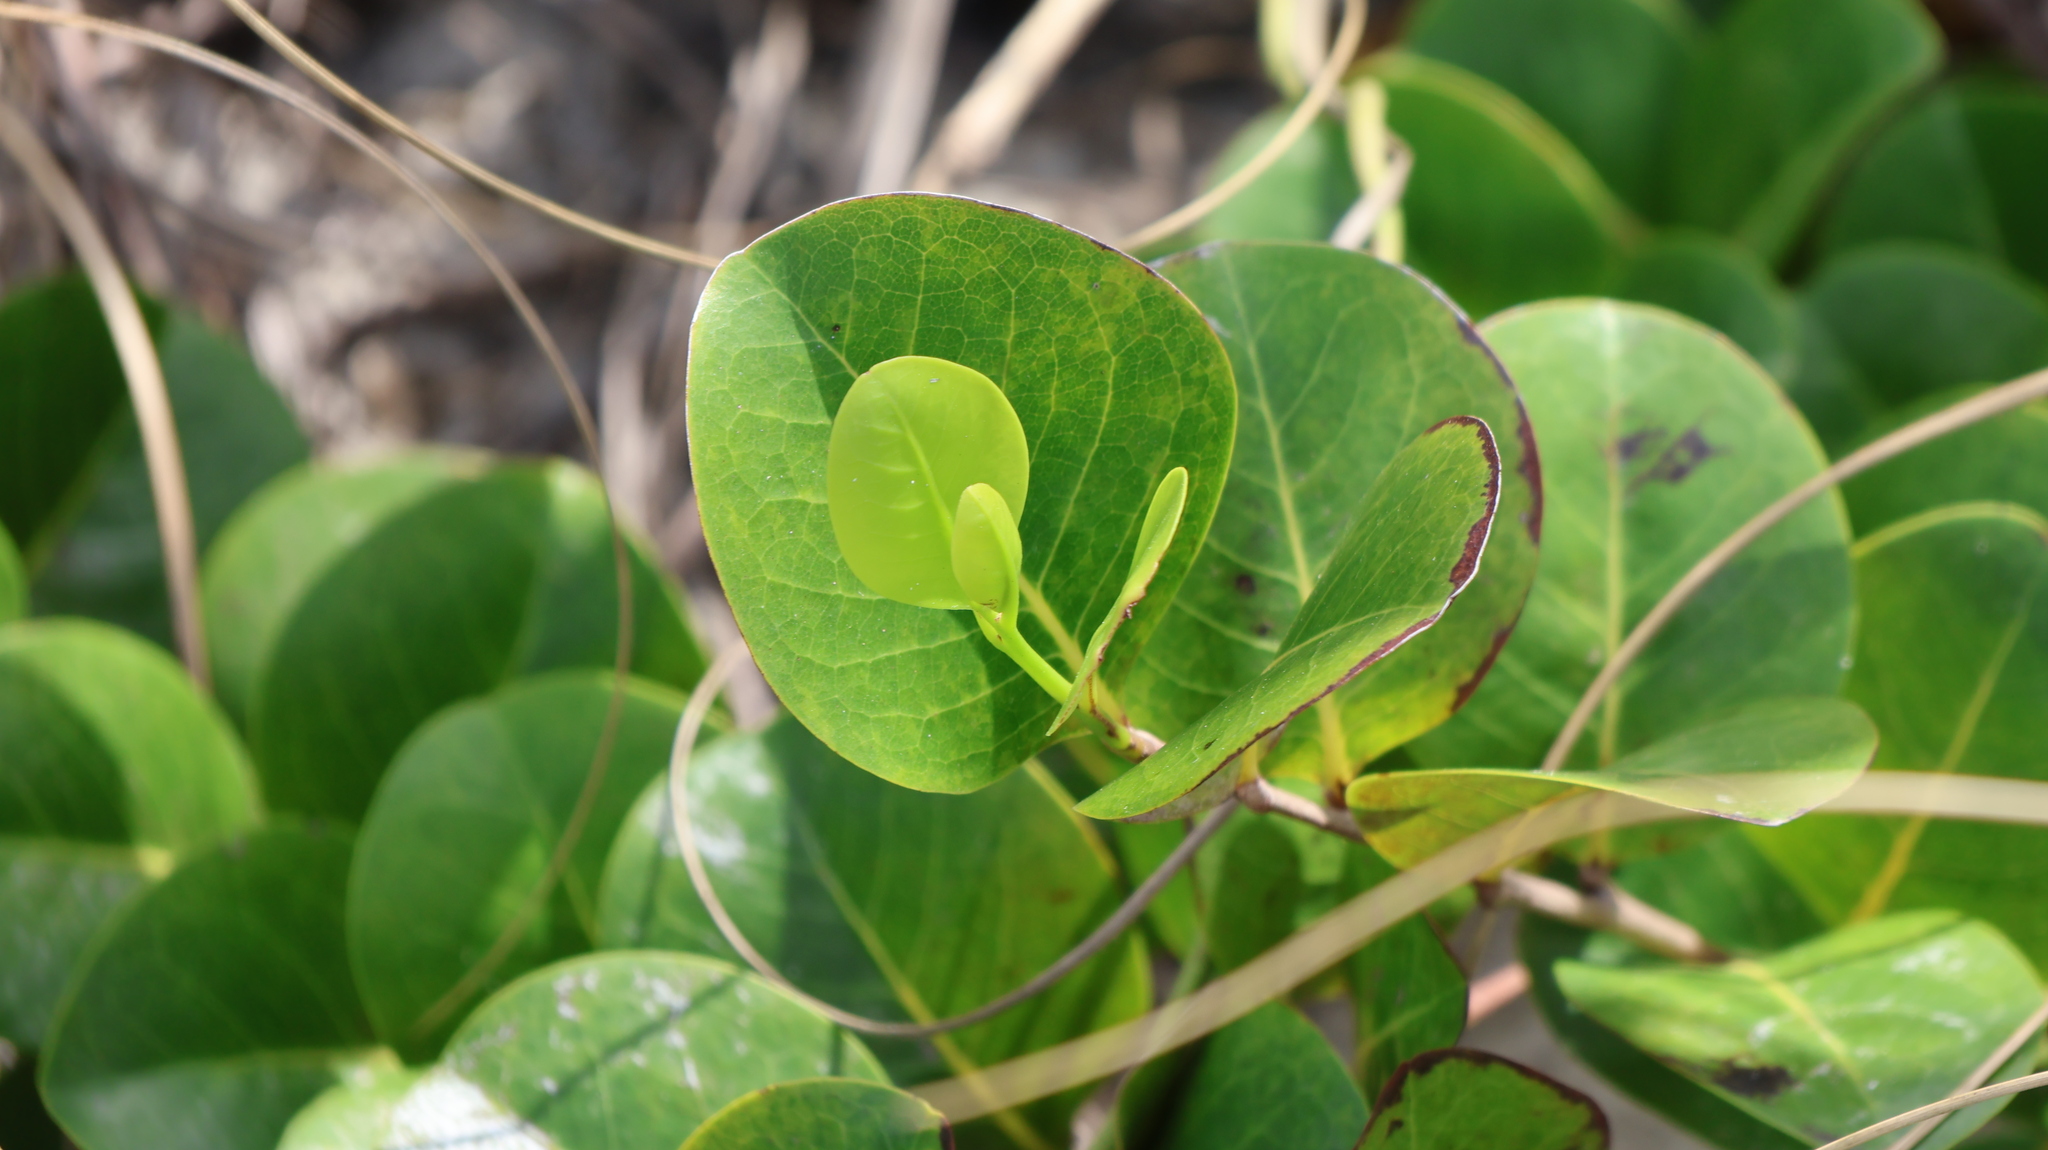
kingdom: Plantae
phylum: Tracheophyta
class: Magnoliopsida
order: Malpighiales
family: Chrysobalanaceae
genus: Chrysobalanus
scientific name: Chrysobalanus icaco
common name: Coco plum
